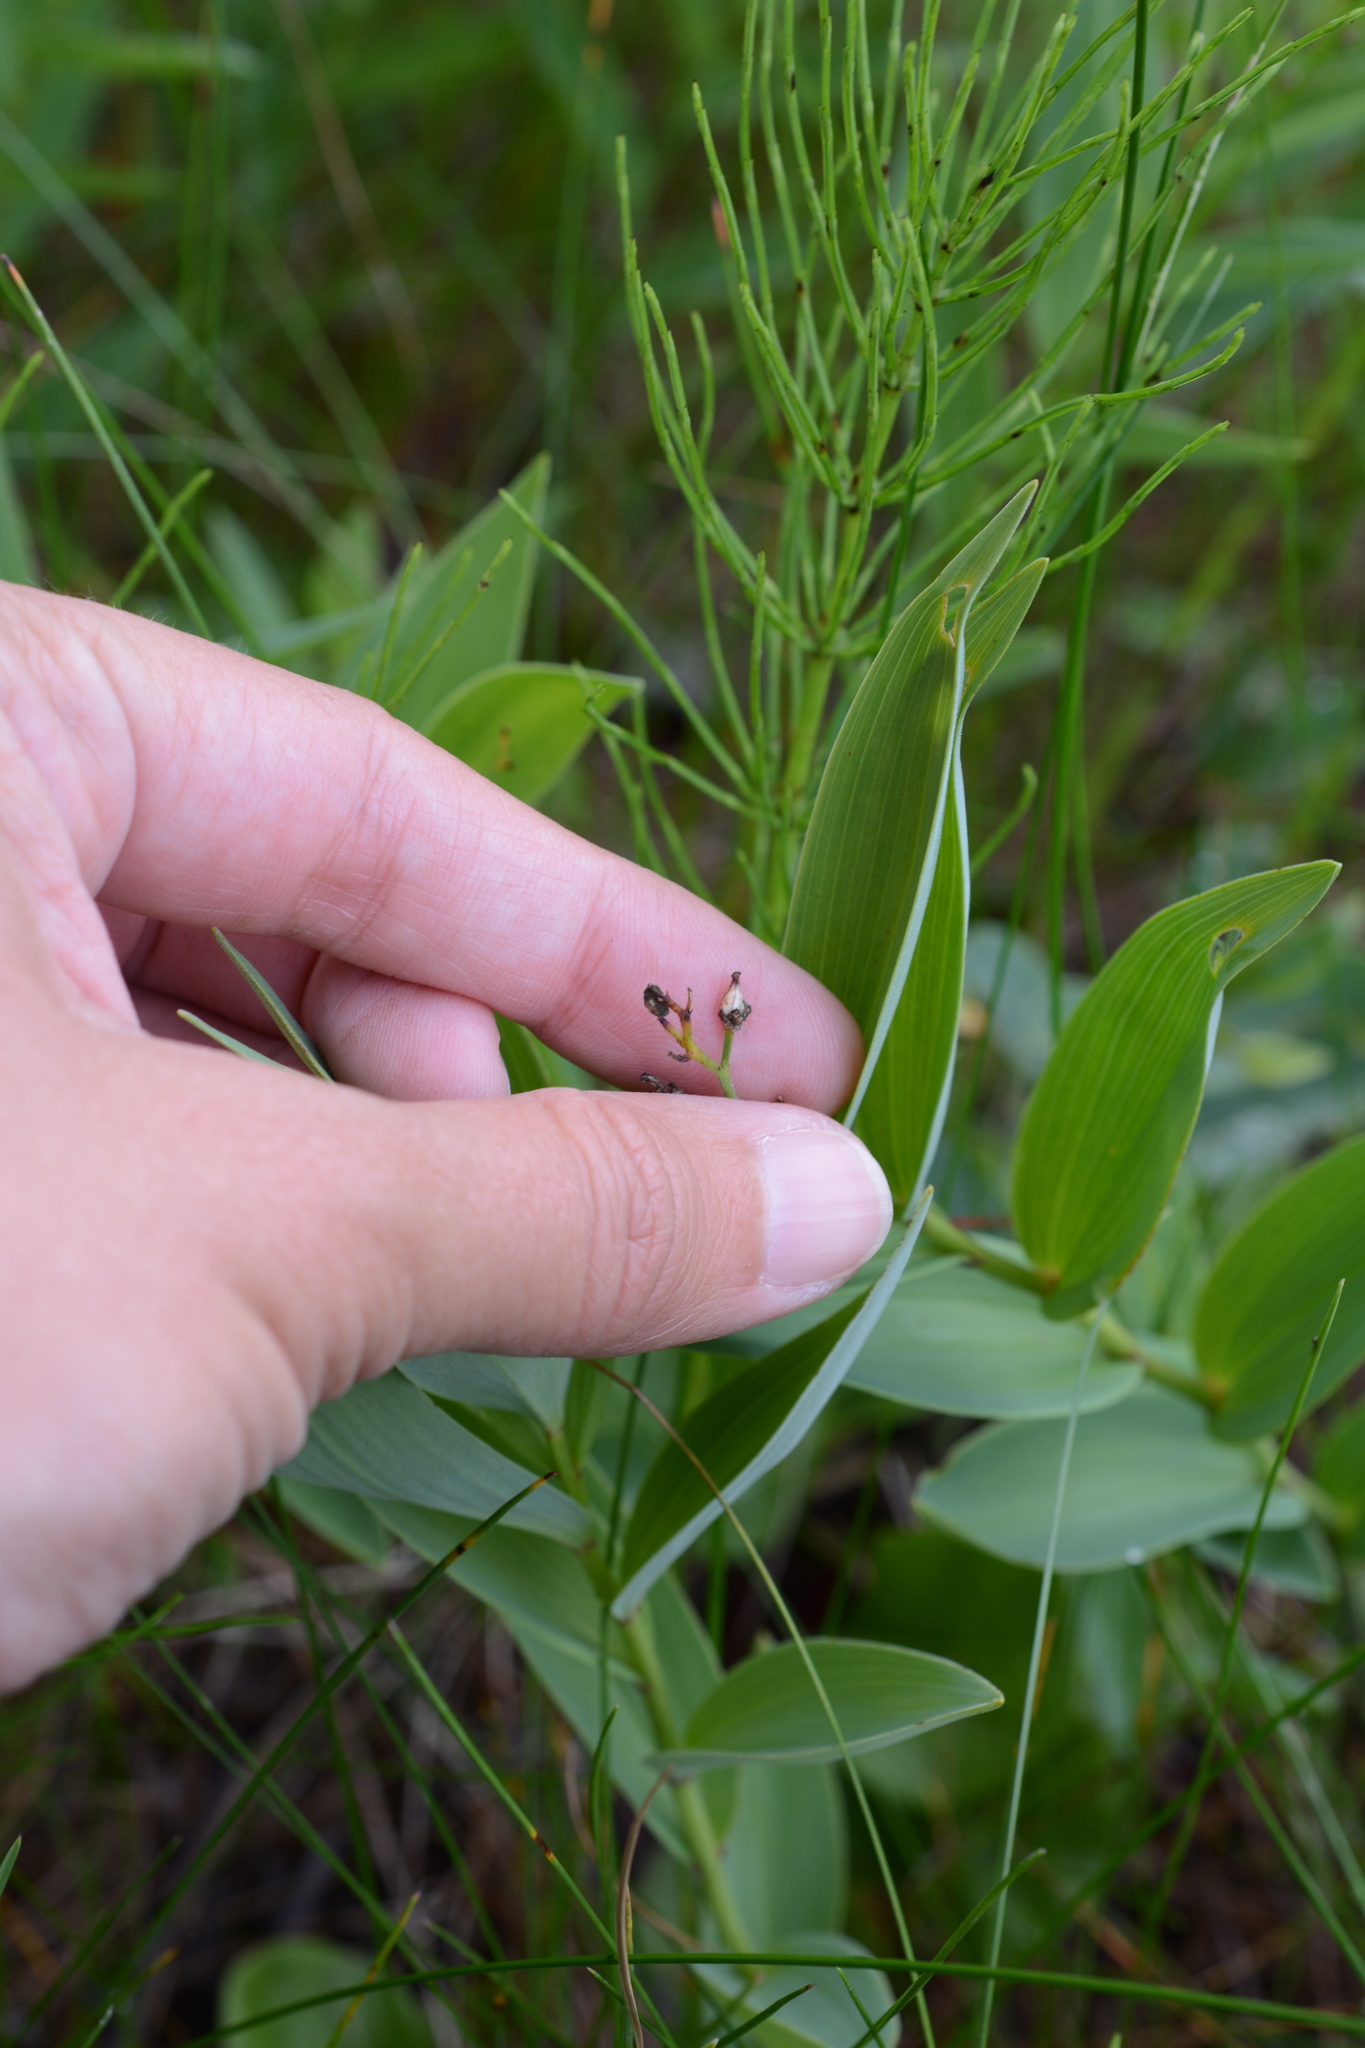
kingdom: Plantae
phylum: Tracheophyta
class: Liliopsida
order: Asparagales
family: Asparagaceae
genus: Maianthemum
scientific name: Maianthemum stellatum
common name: Little false solomon's seal
